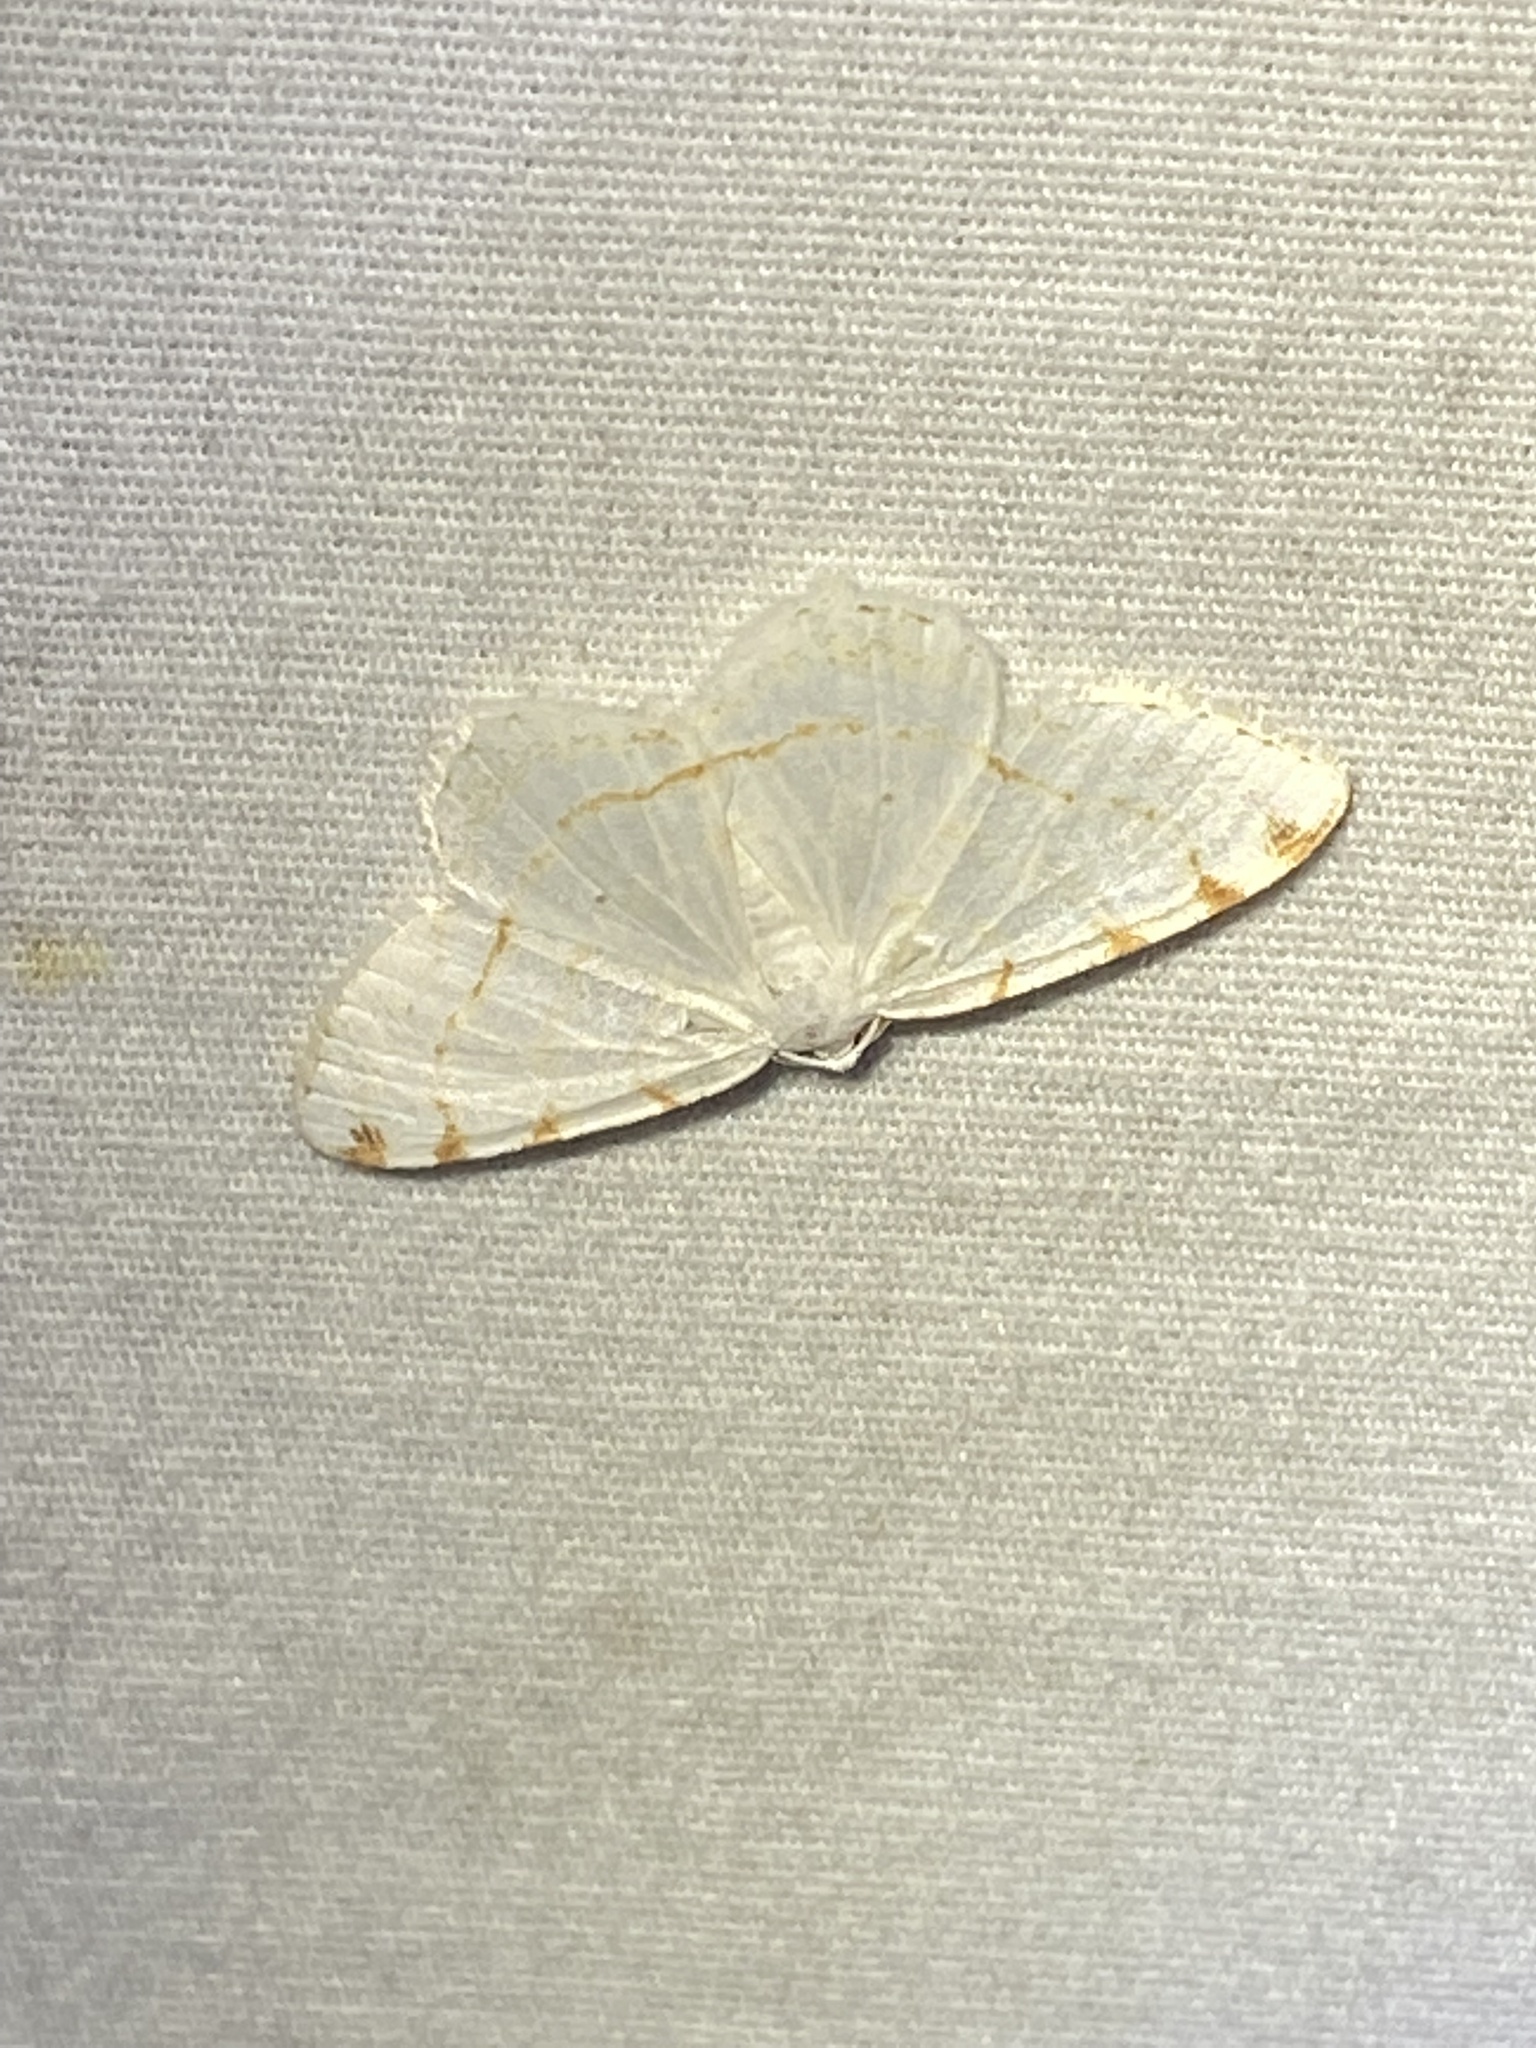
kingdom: Animalia
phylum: Arthropoda
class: Insecta
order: Lepidoptera
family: Geometridae
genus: Macaria
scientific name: Macaria pustularia
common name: Lesser maple spanworm moth
